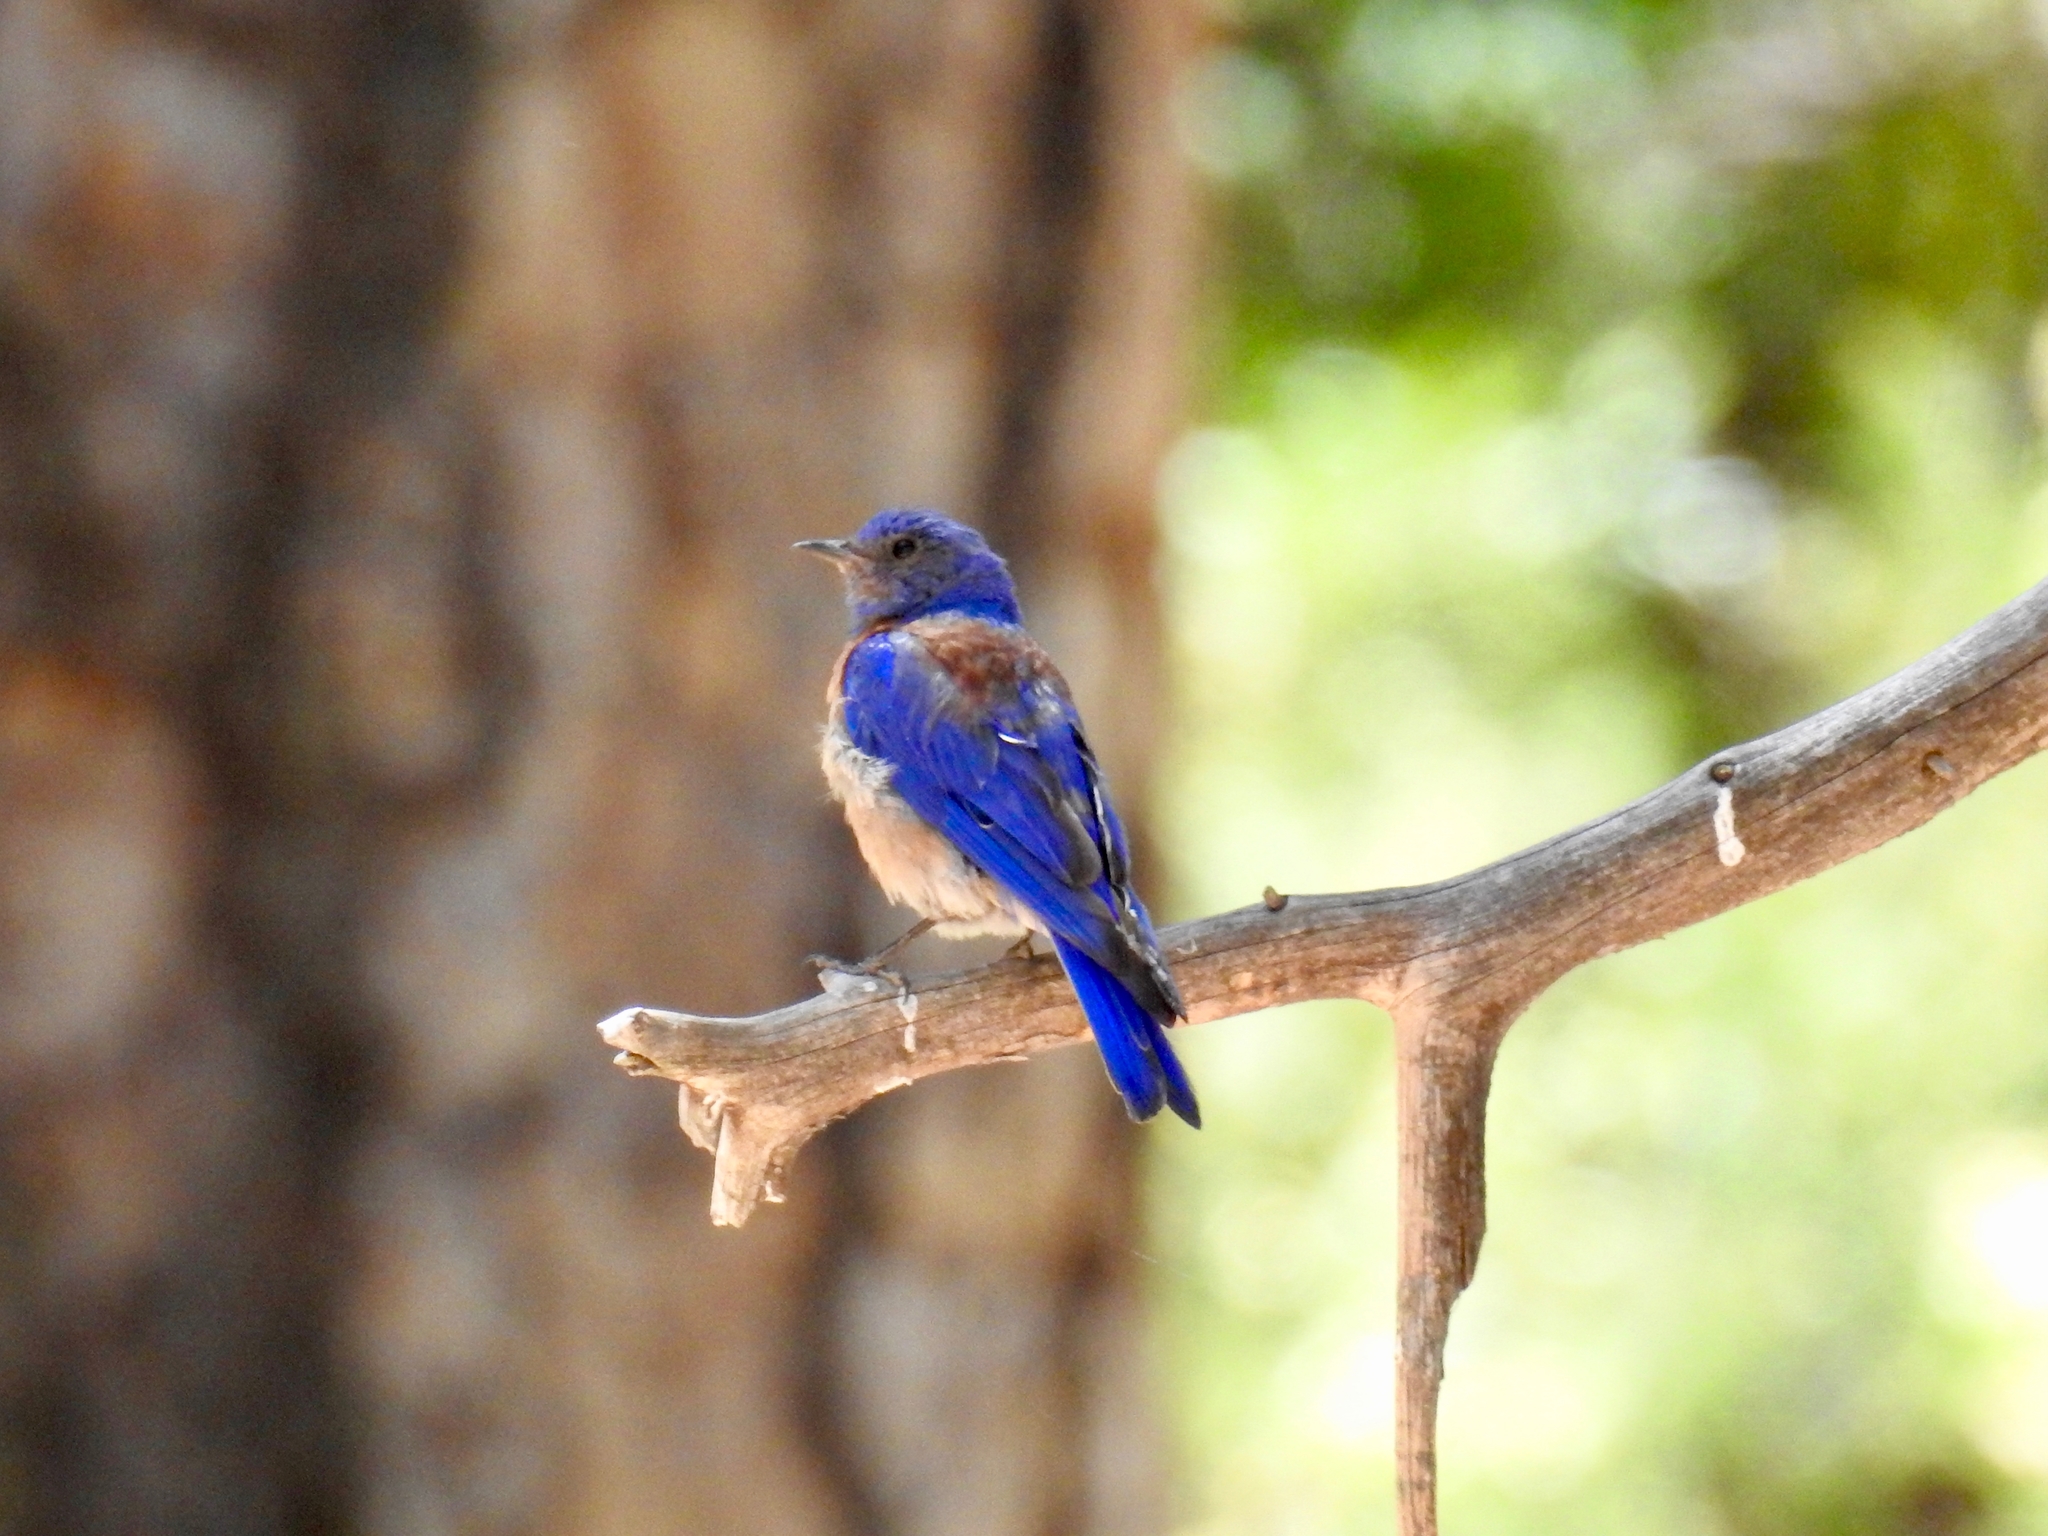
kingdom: Animalia
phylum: Chordata
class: Aves
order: Passeriformes
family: Turdidae
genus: Sialia
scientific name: Sialia mexicana
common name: Western bluebird
